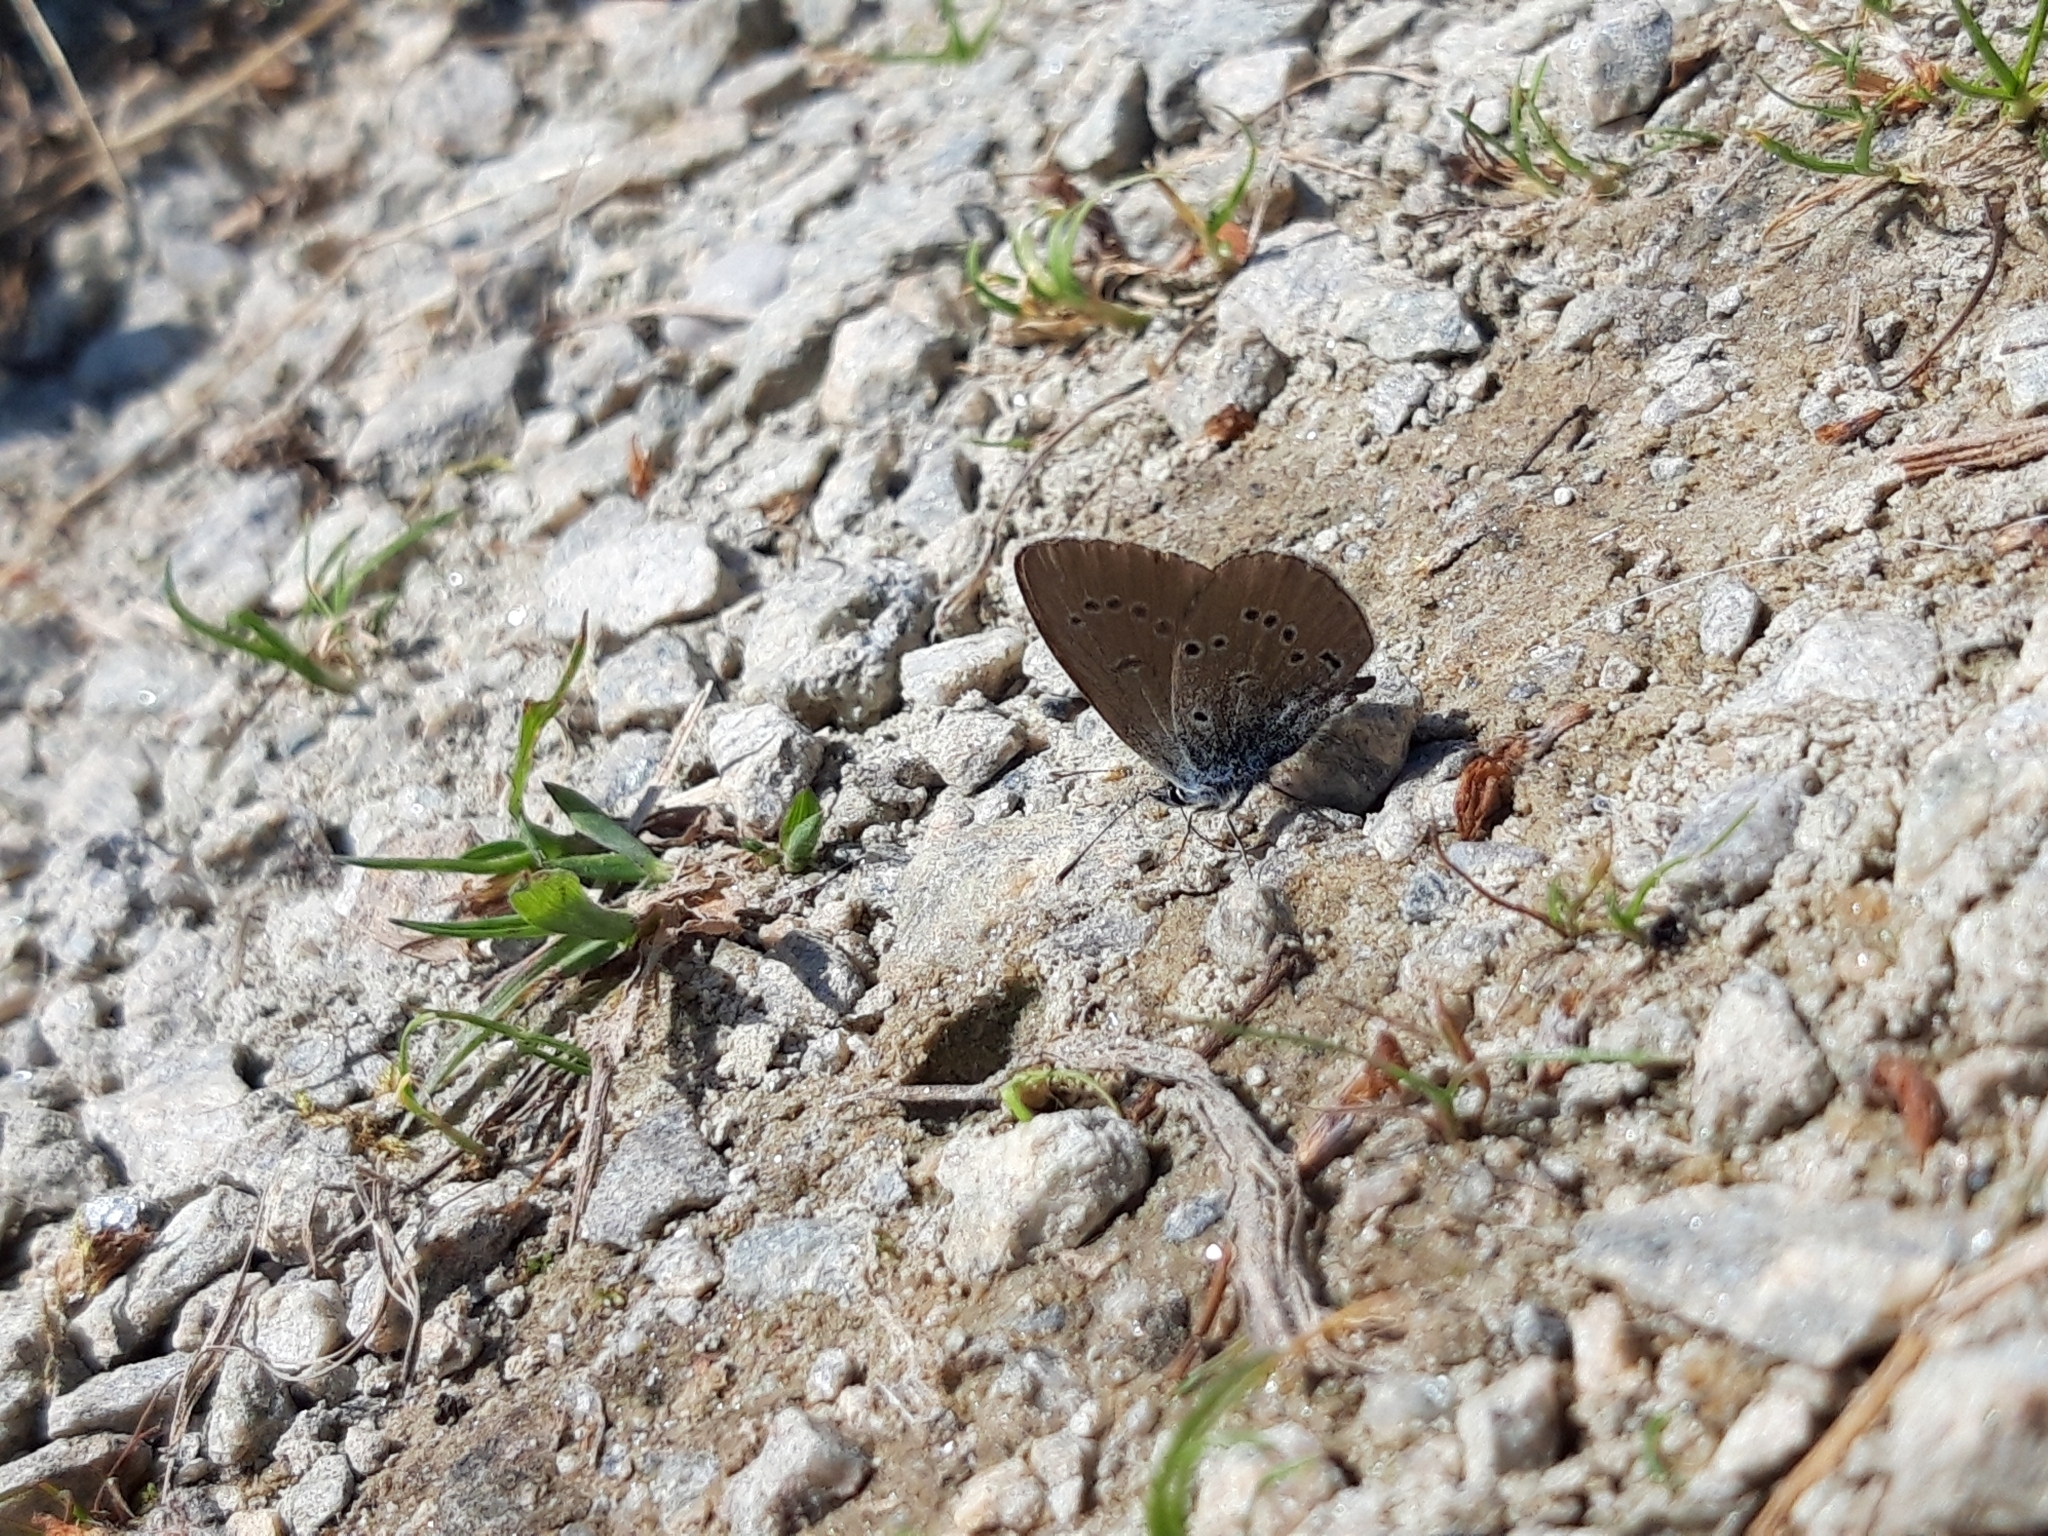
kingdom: Animalia
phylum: Arthropoda
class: Insecta
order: Lepidoptera
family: Lycaenidae
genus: Cyaniris
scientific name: Cyaniris semiargus
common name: Mazarine blue
